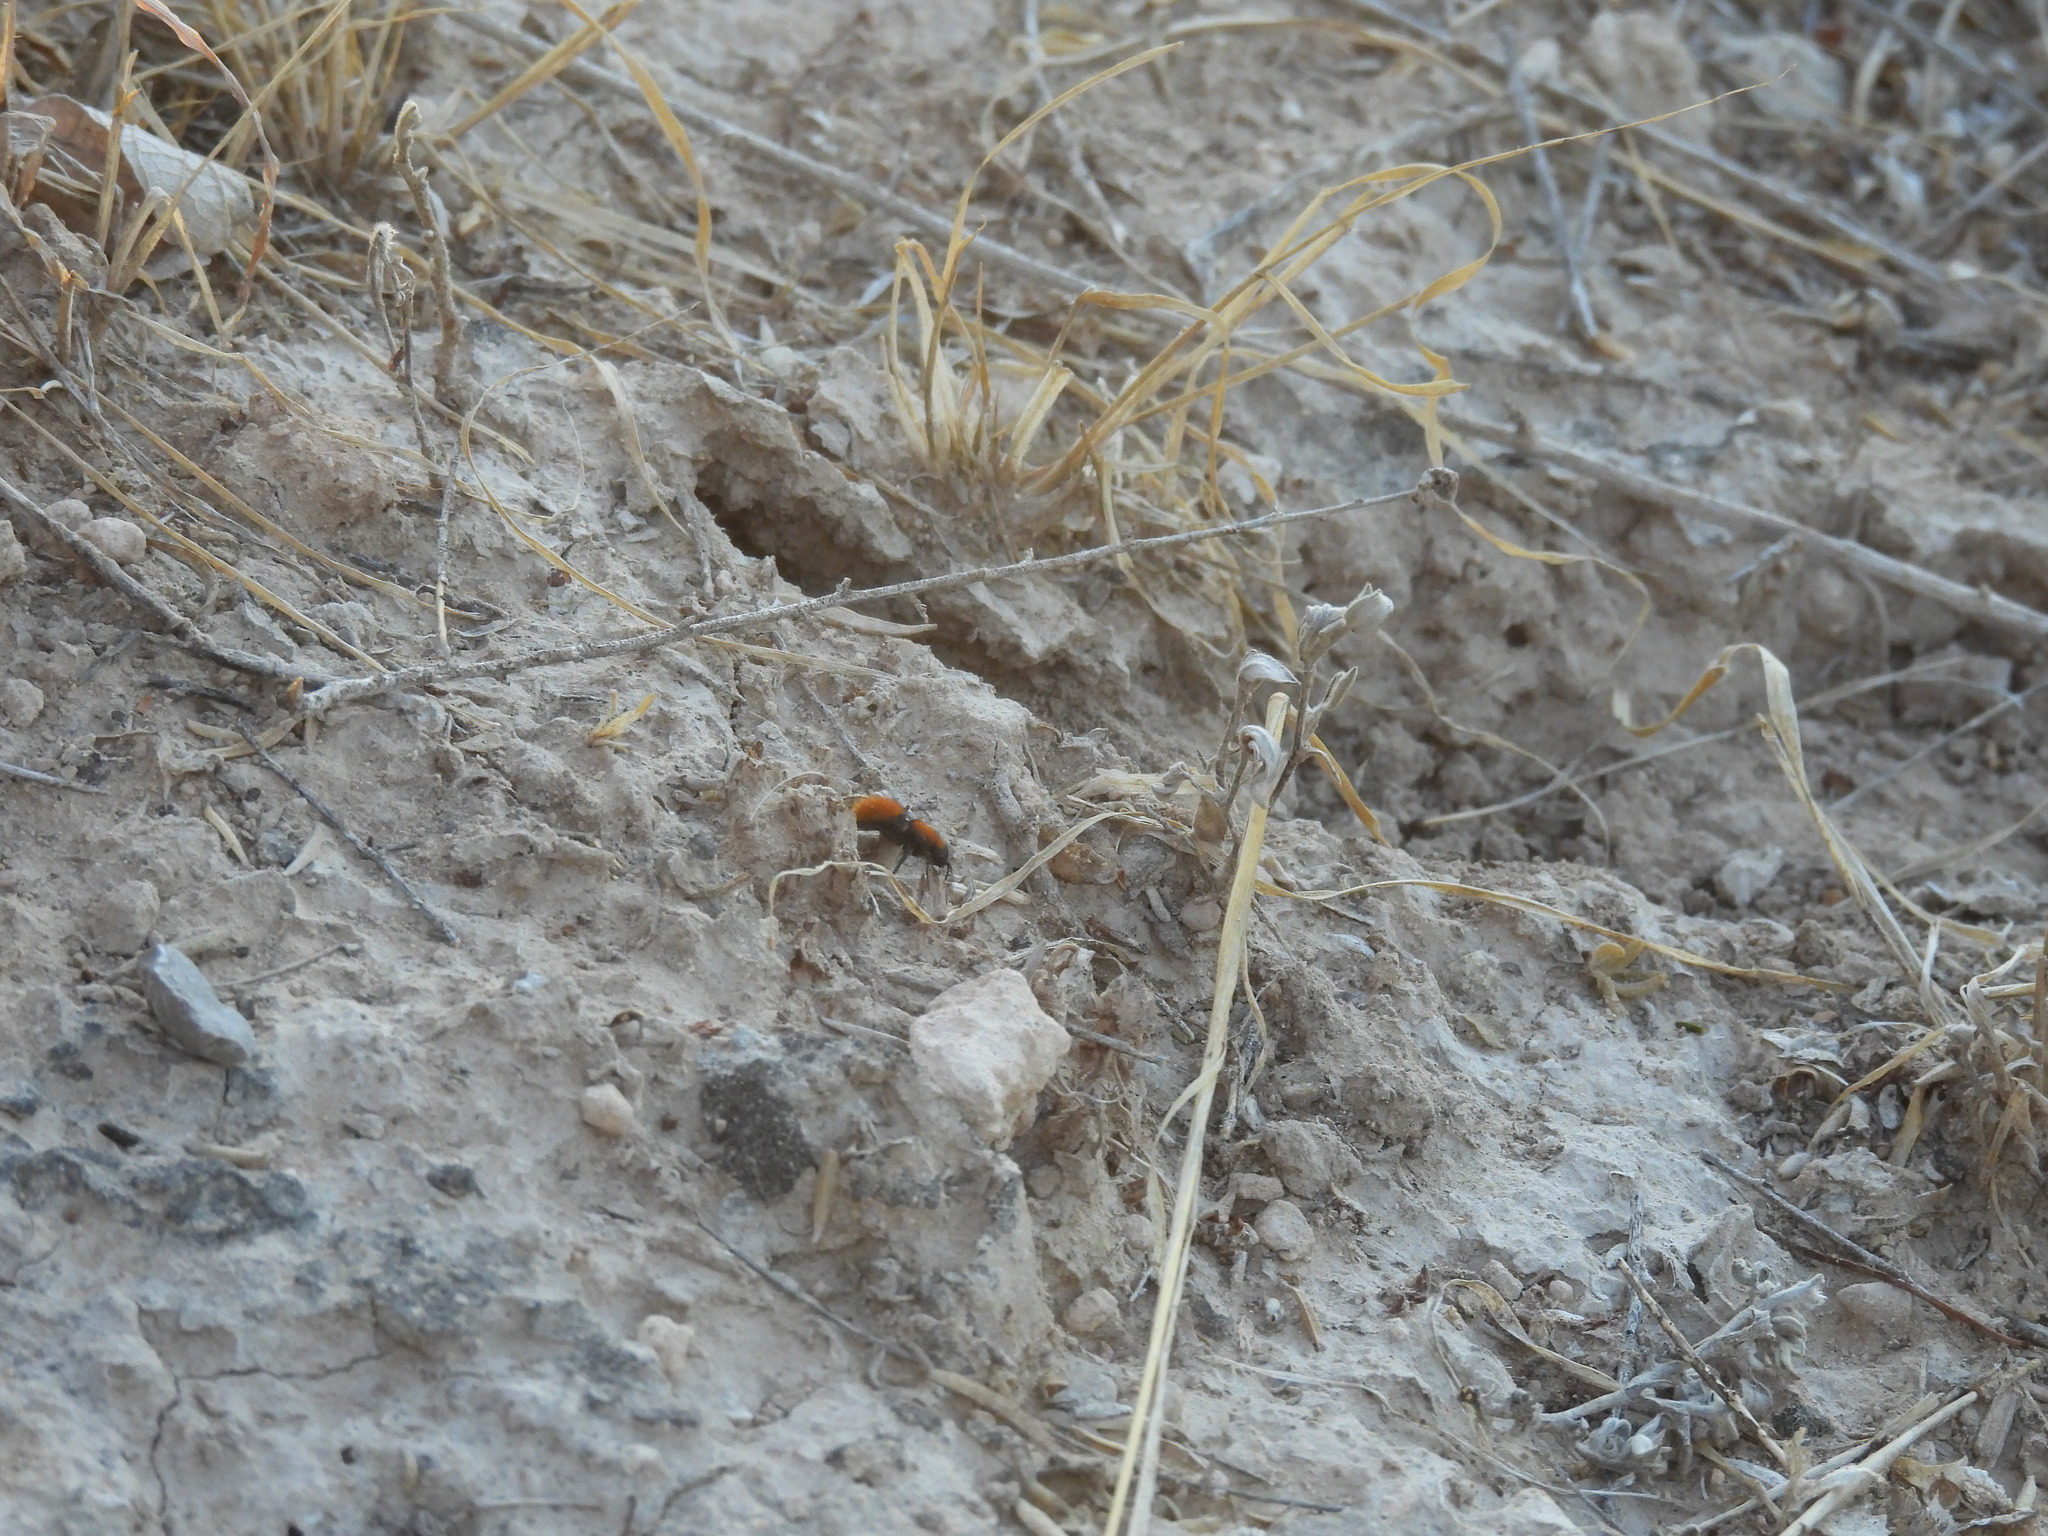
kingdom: Animalia
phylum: Arthropoda
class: Insecta
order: Hymenoptera
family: Mutillidae
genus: Dasymutilla
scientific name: Dasymutilla vestita
